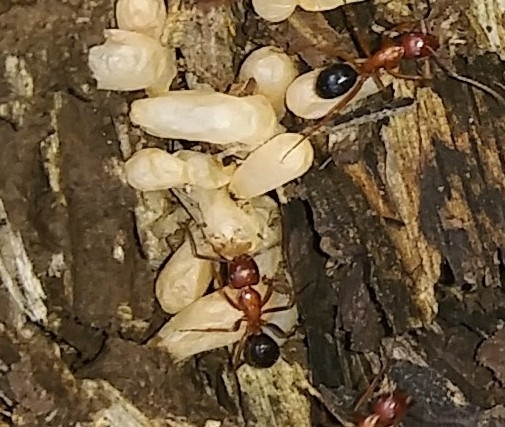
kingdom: Animalia
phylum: Arthropoda
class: Insecta
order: Hymenoptera
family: Formicidae
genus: Camponotus
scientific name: Camponotus floridanus
